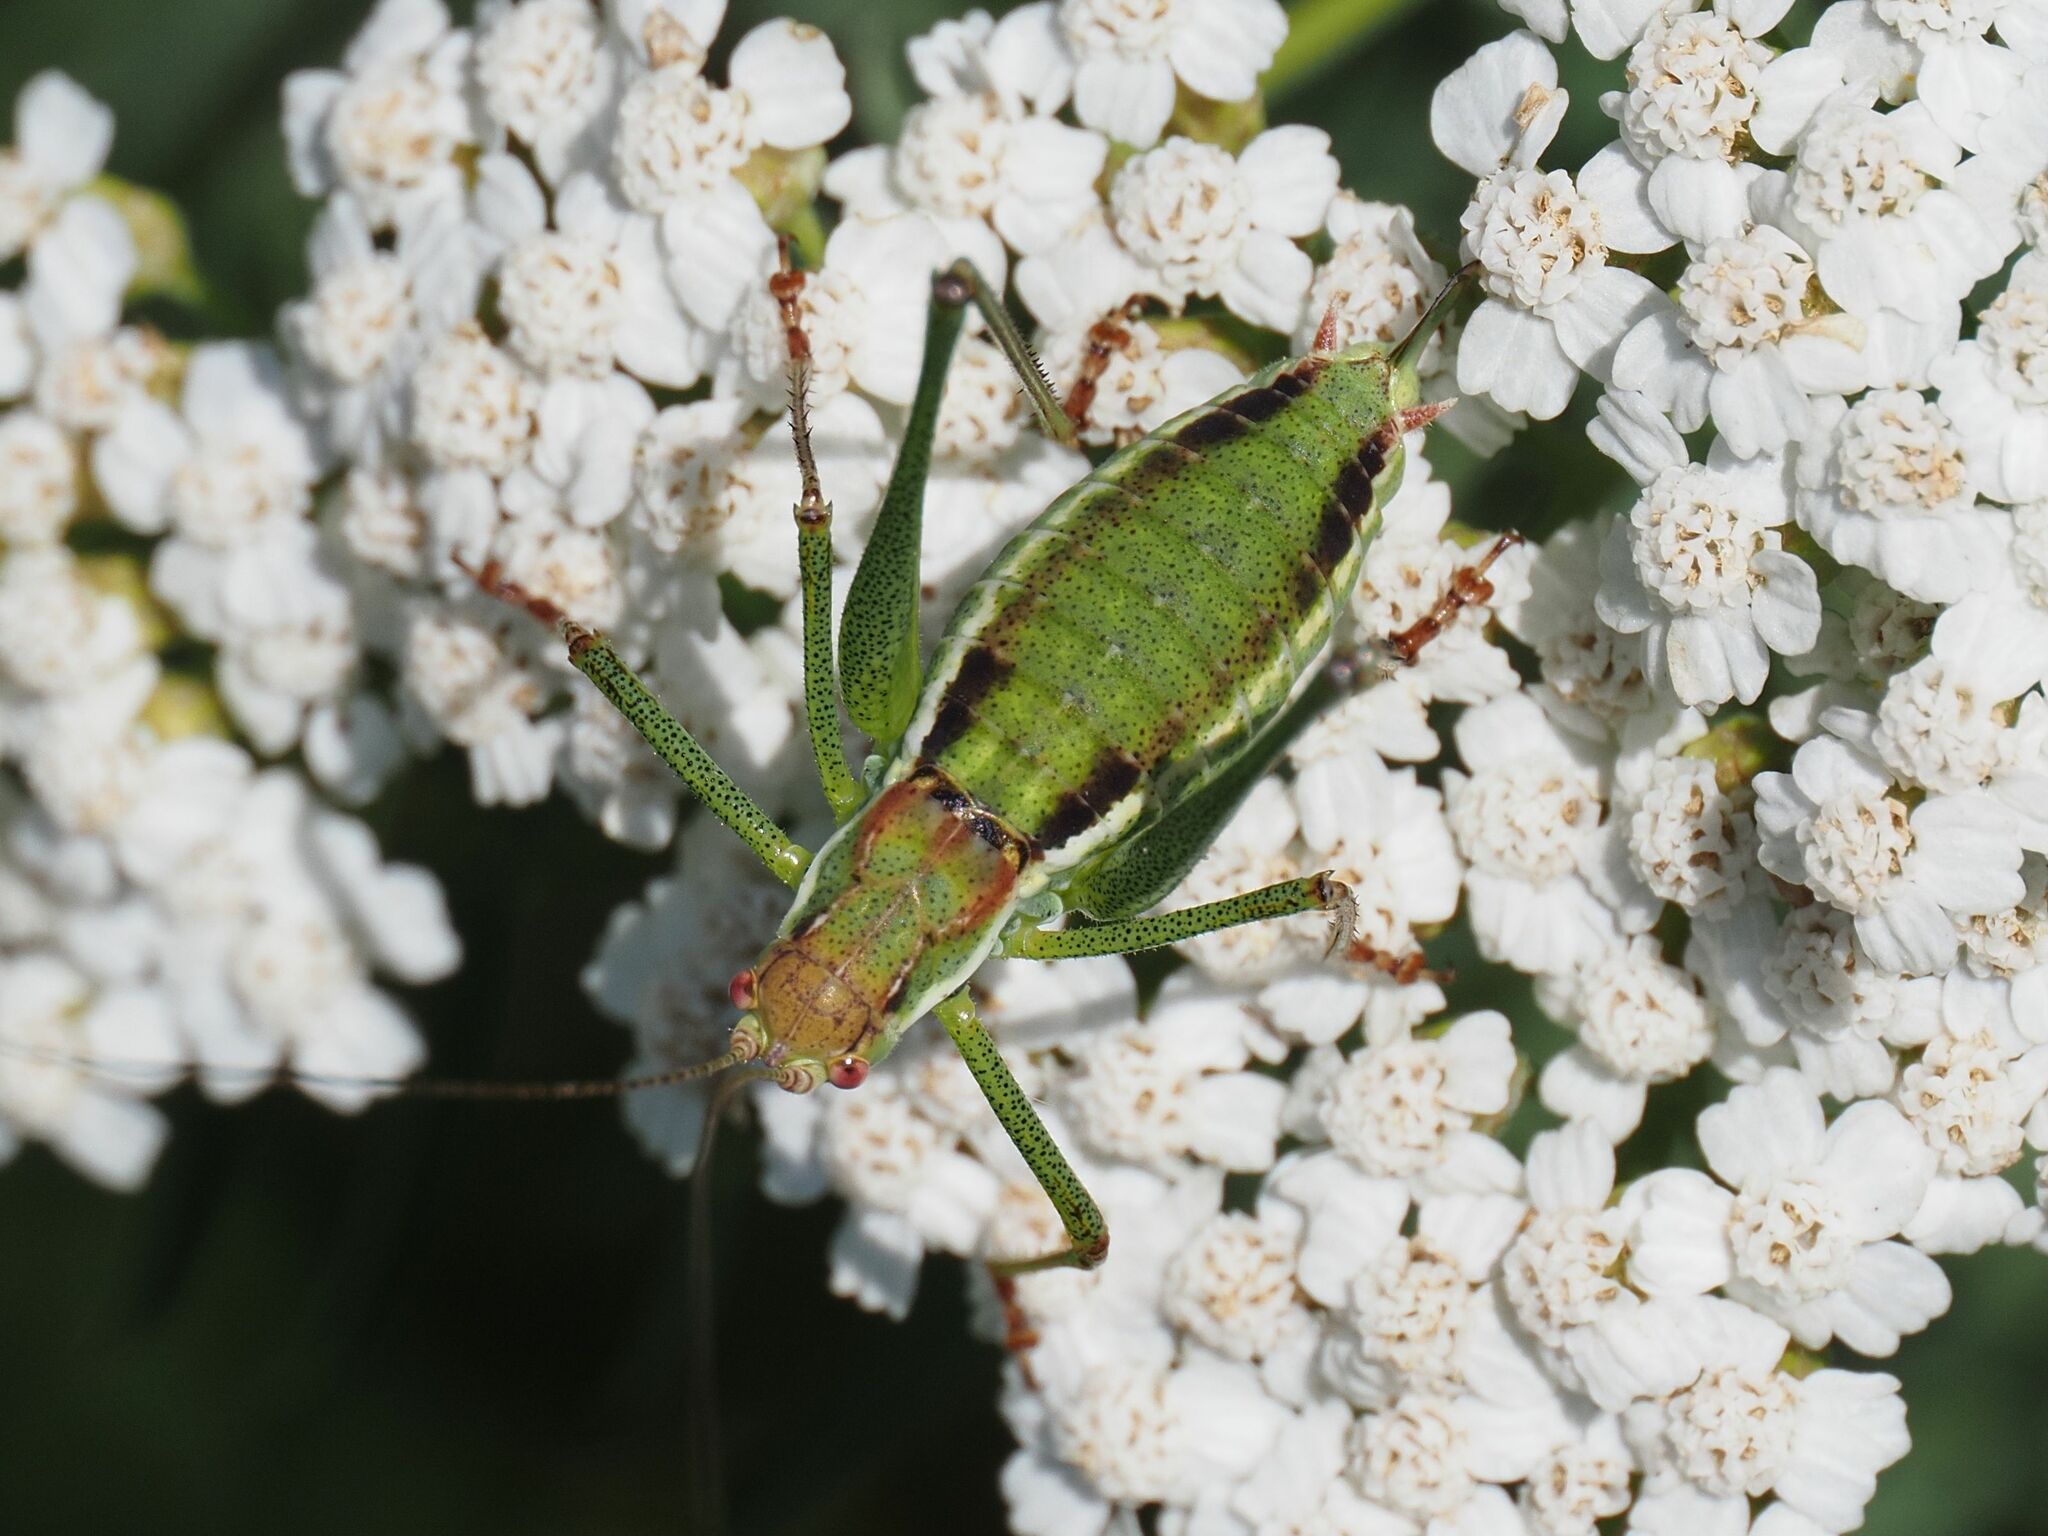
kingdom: Animalia
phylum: Arthropoda
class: Insecta
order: Orthoptera
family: Tettigoniidae
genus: Leptophyes
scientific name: Leptophyes albovittata
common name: Striped bush-cricket
